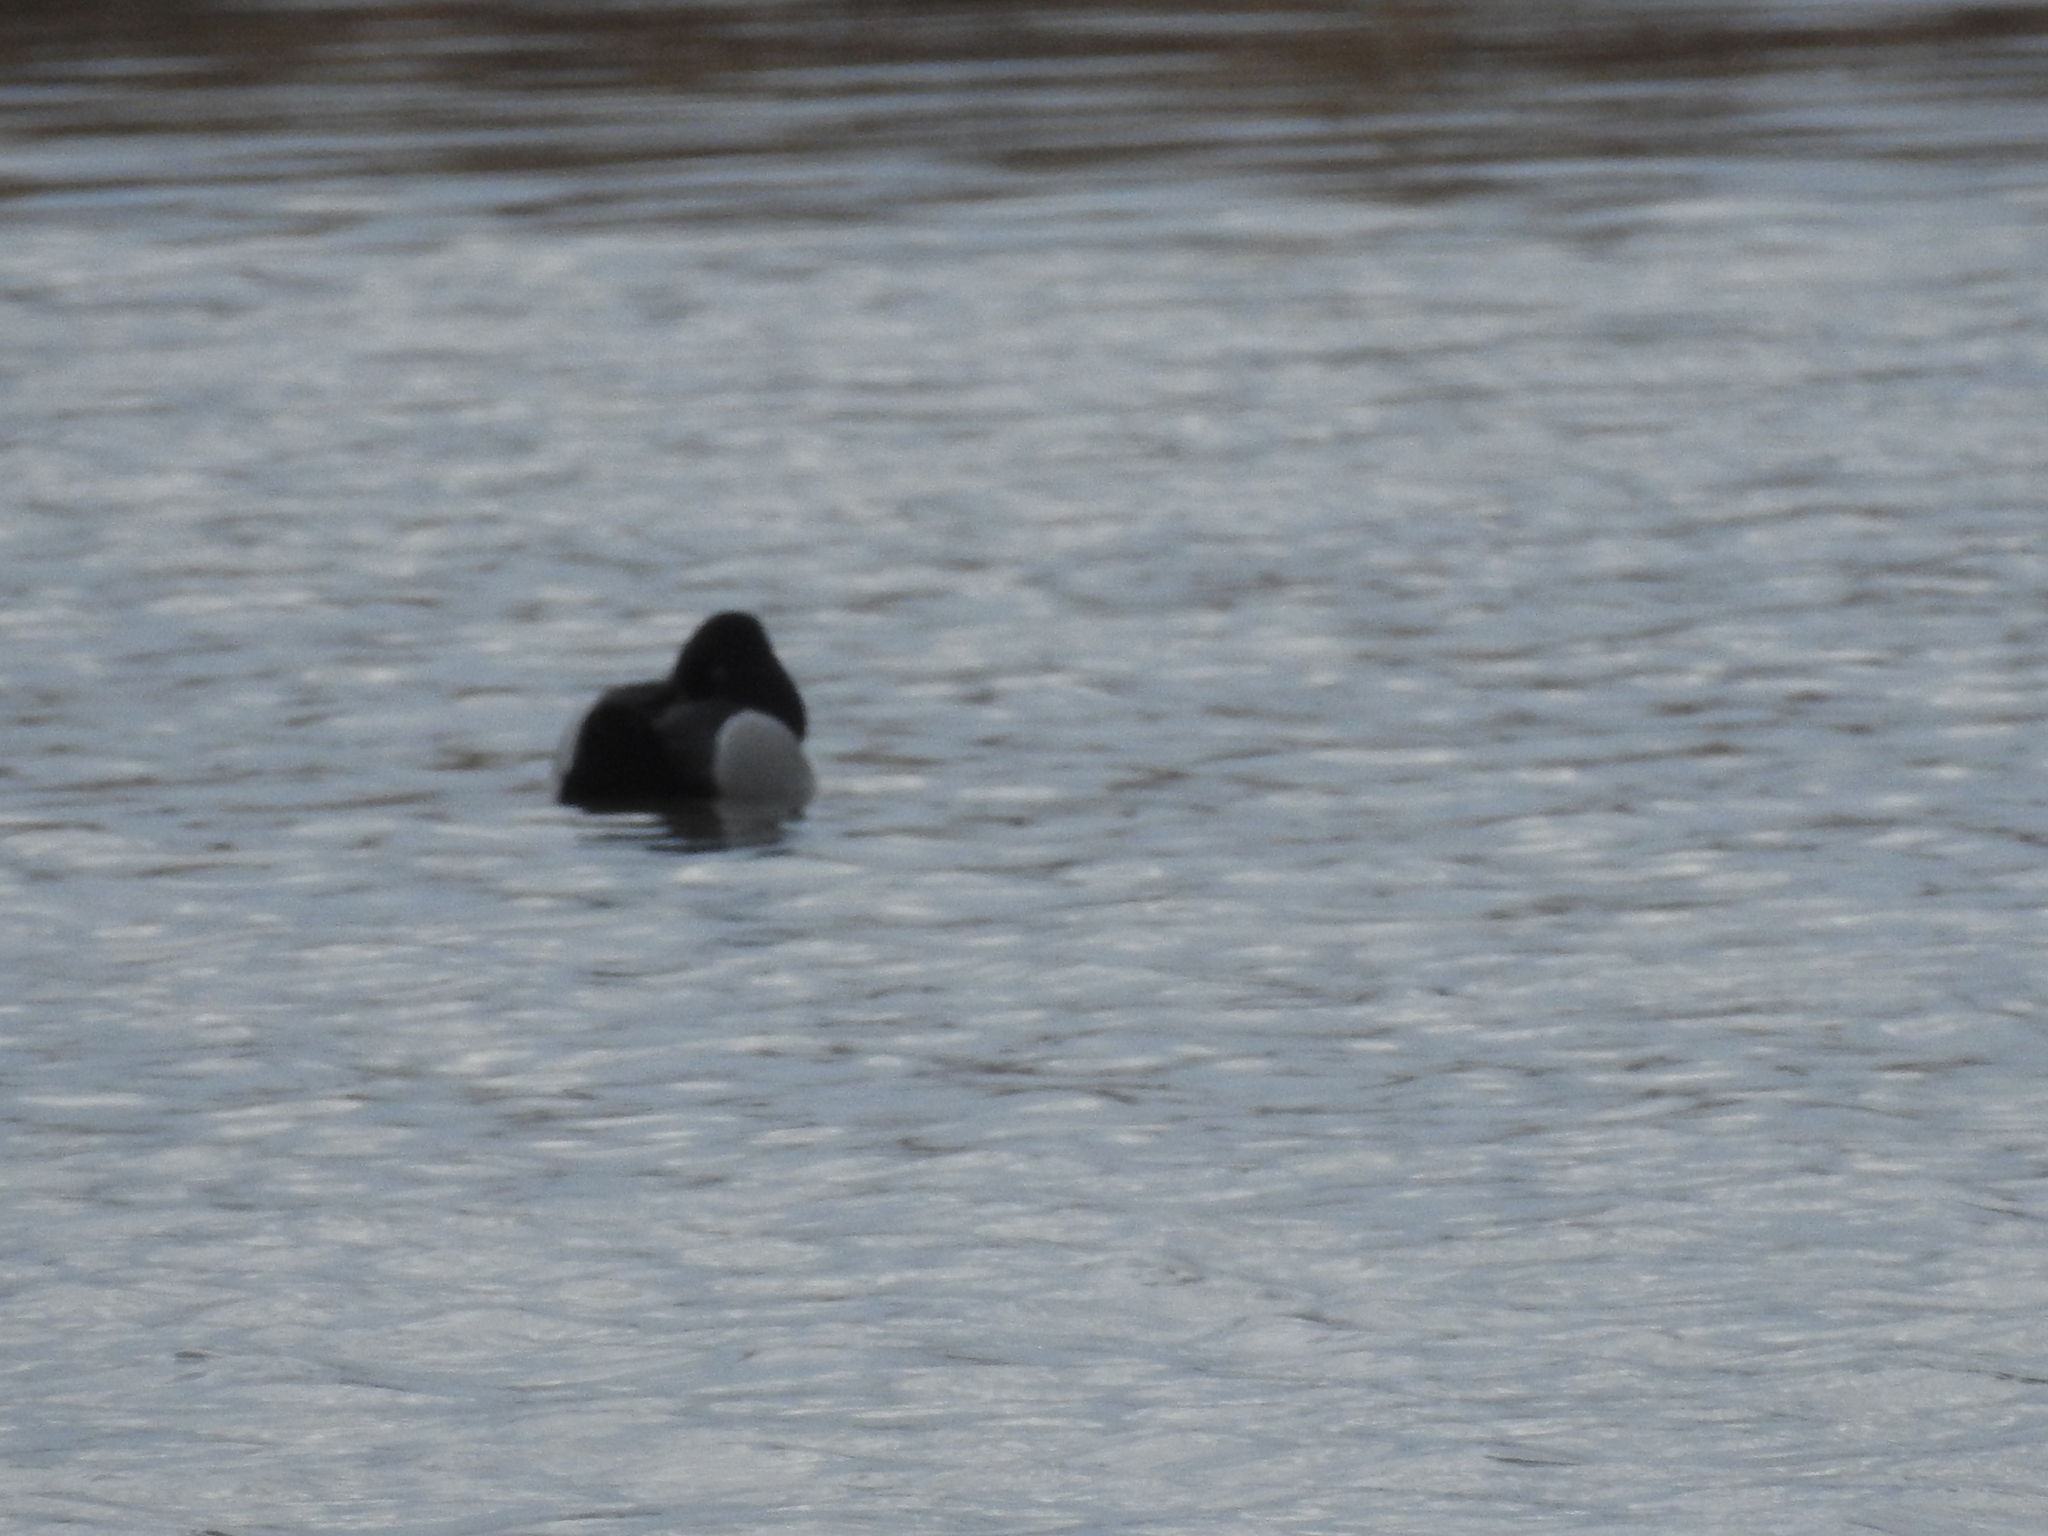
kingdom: Animalia
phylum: Chordata
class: Aves
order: Anseriformes
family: Anatidae
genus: Aythya
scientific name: Aythya collaris
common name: Ring-necked duck
